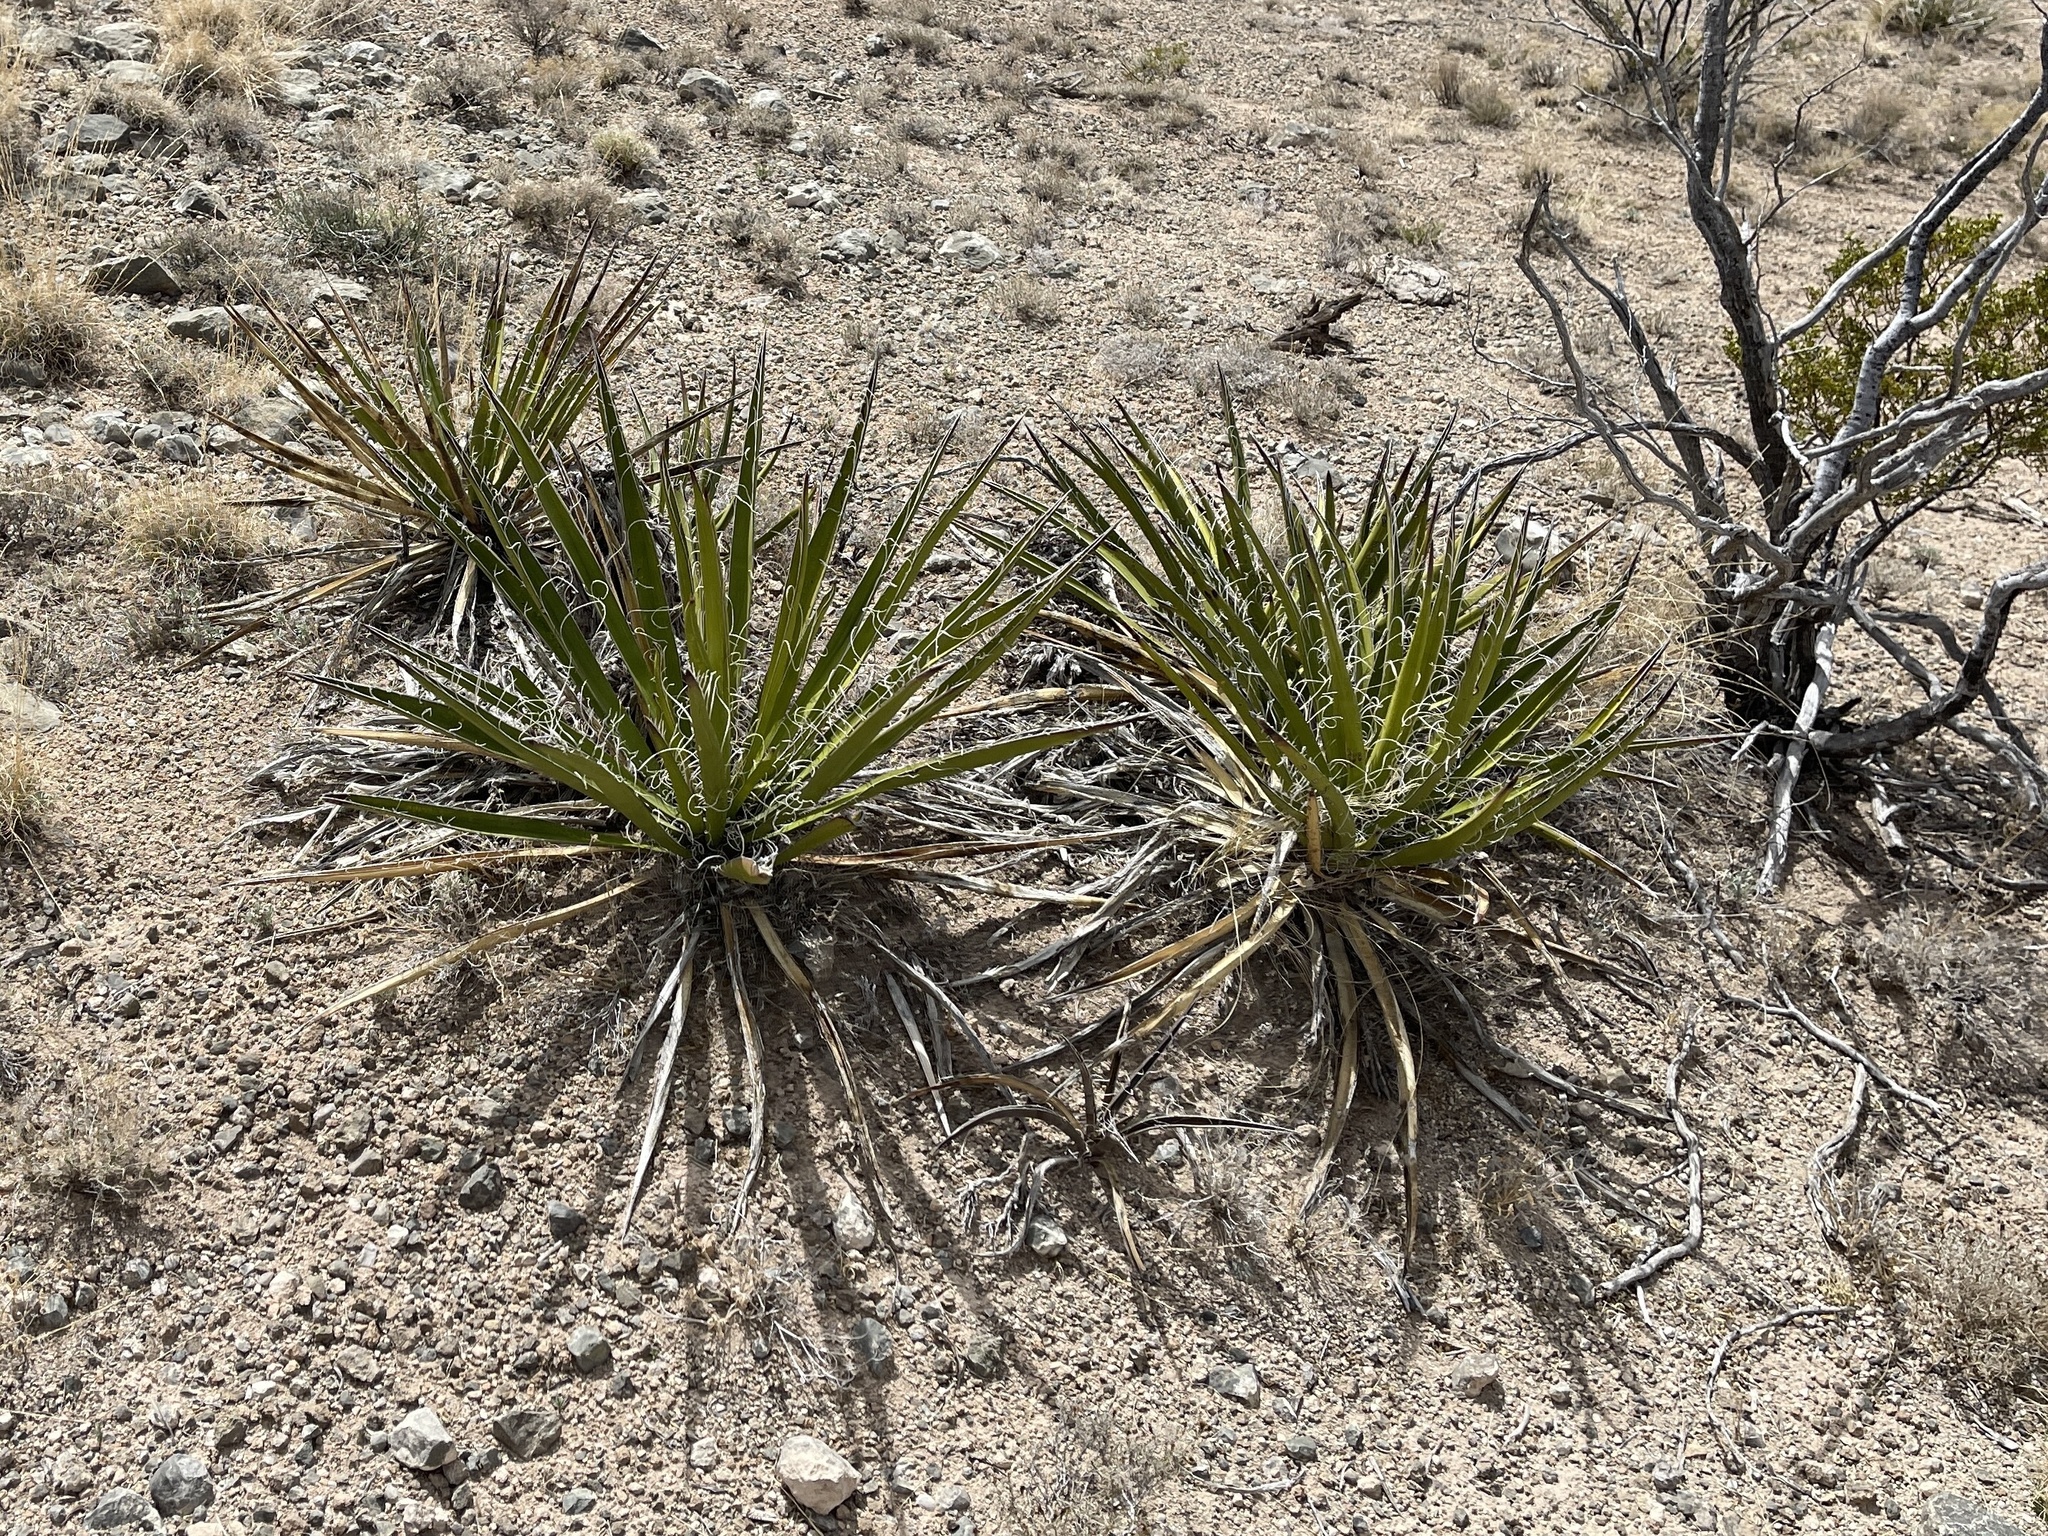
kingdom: Plantae
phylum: Tracheophyta
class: Liliopsida
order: Asparagales
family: Asparagaceae
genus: Yucca
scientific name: Yucca baccata
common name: Banana yucca
